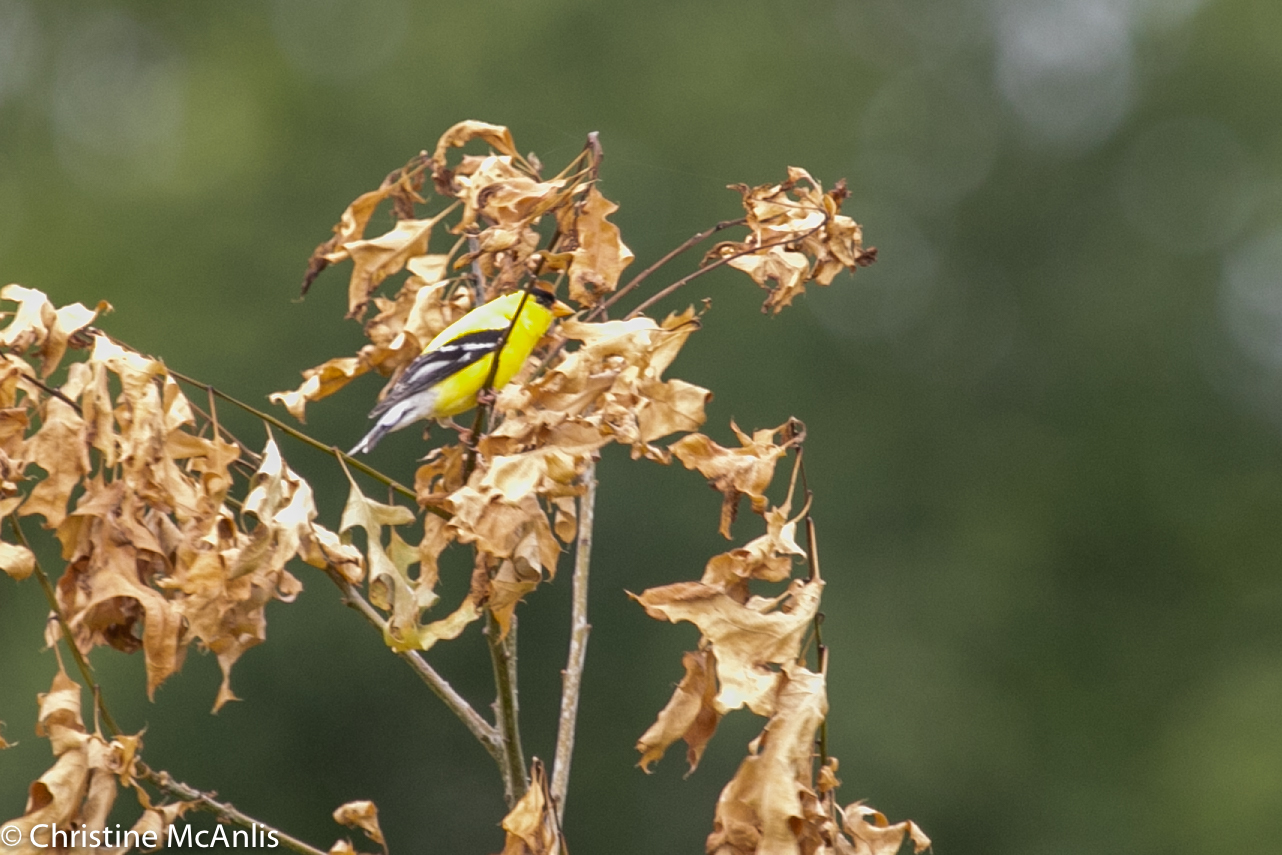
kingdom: Animalia
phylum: Chordata
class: Aves
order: Passeriformes
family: Fringillidae
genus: Spinus
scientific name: Spinus tristis
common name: American goldfinch
